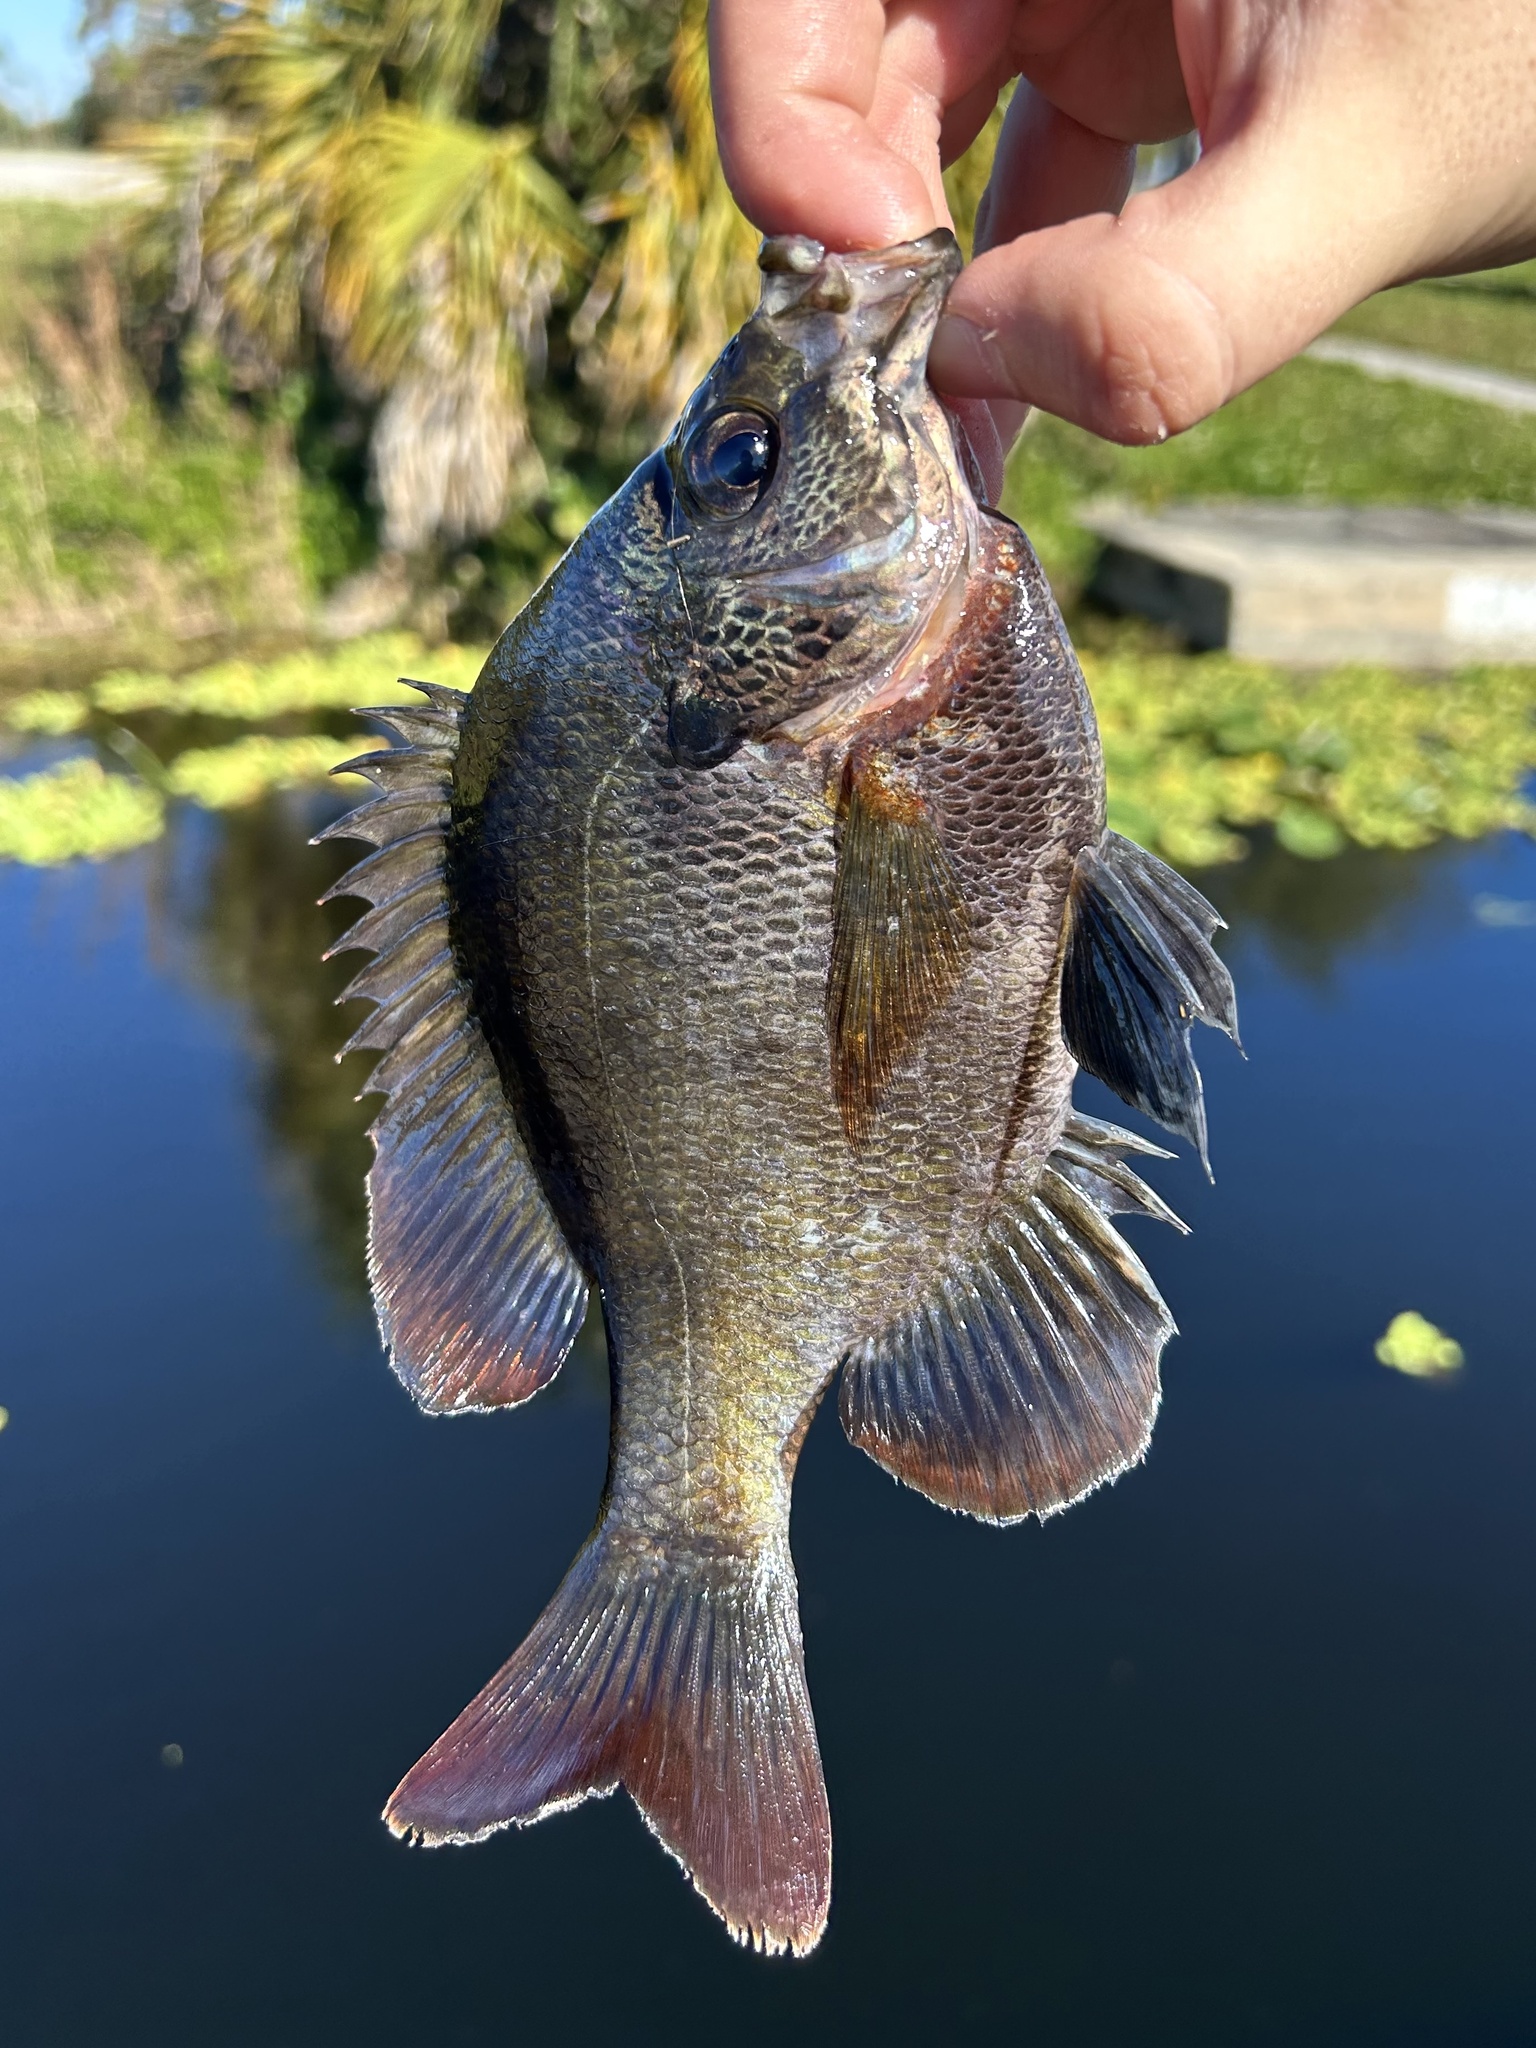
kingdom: Animalia
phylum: Chordata
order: Perciformes
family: Centrarchidae
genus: Lepomis
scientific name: Lepomis macrochirus
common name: Bluegill
